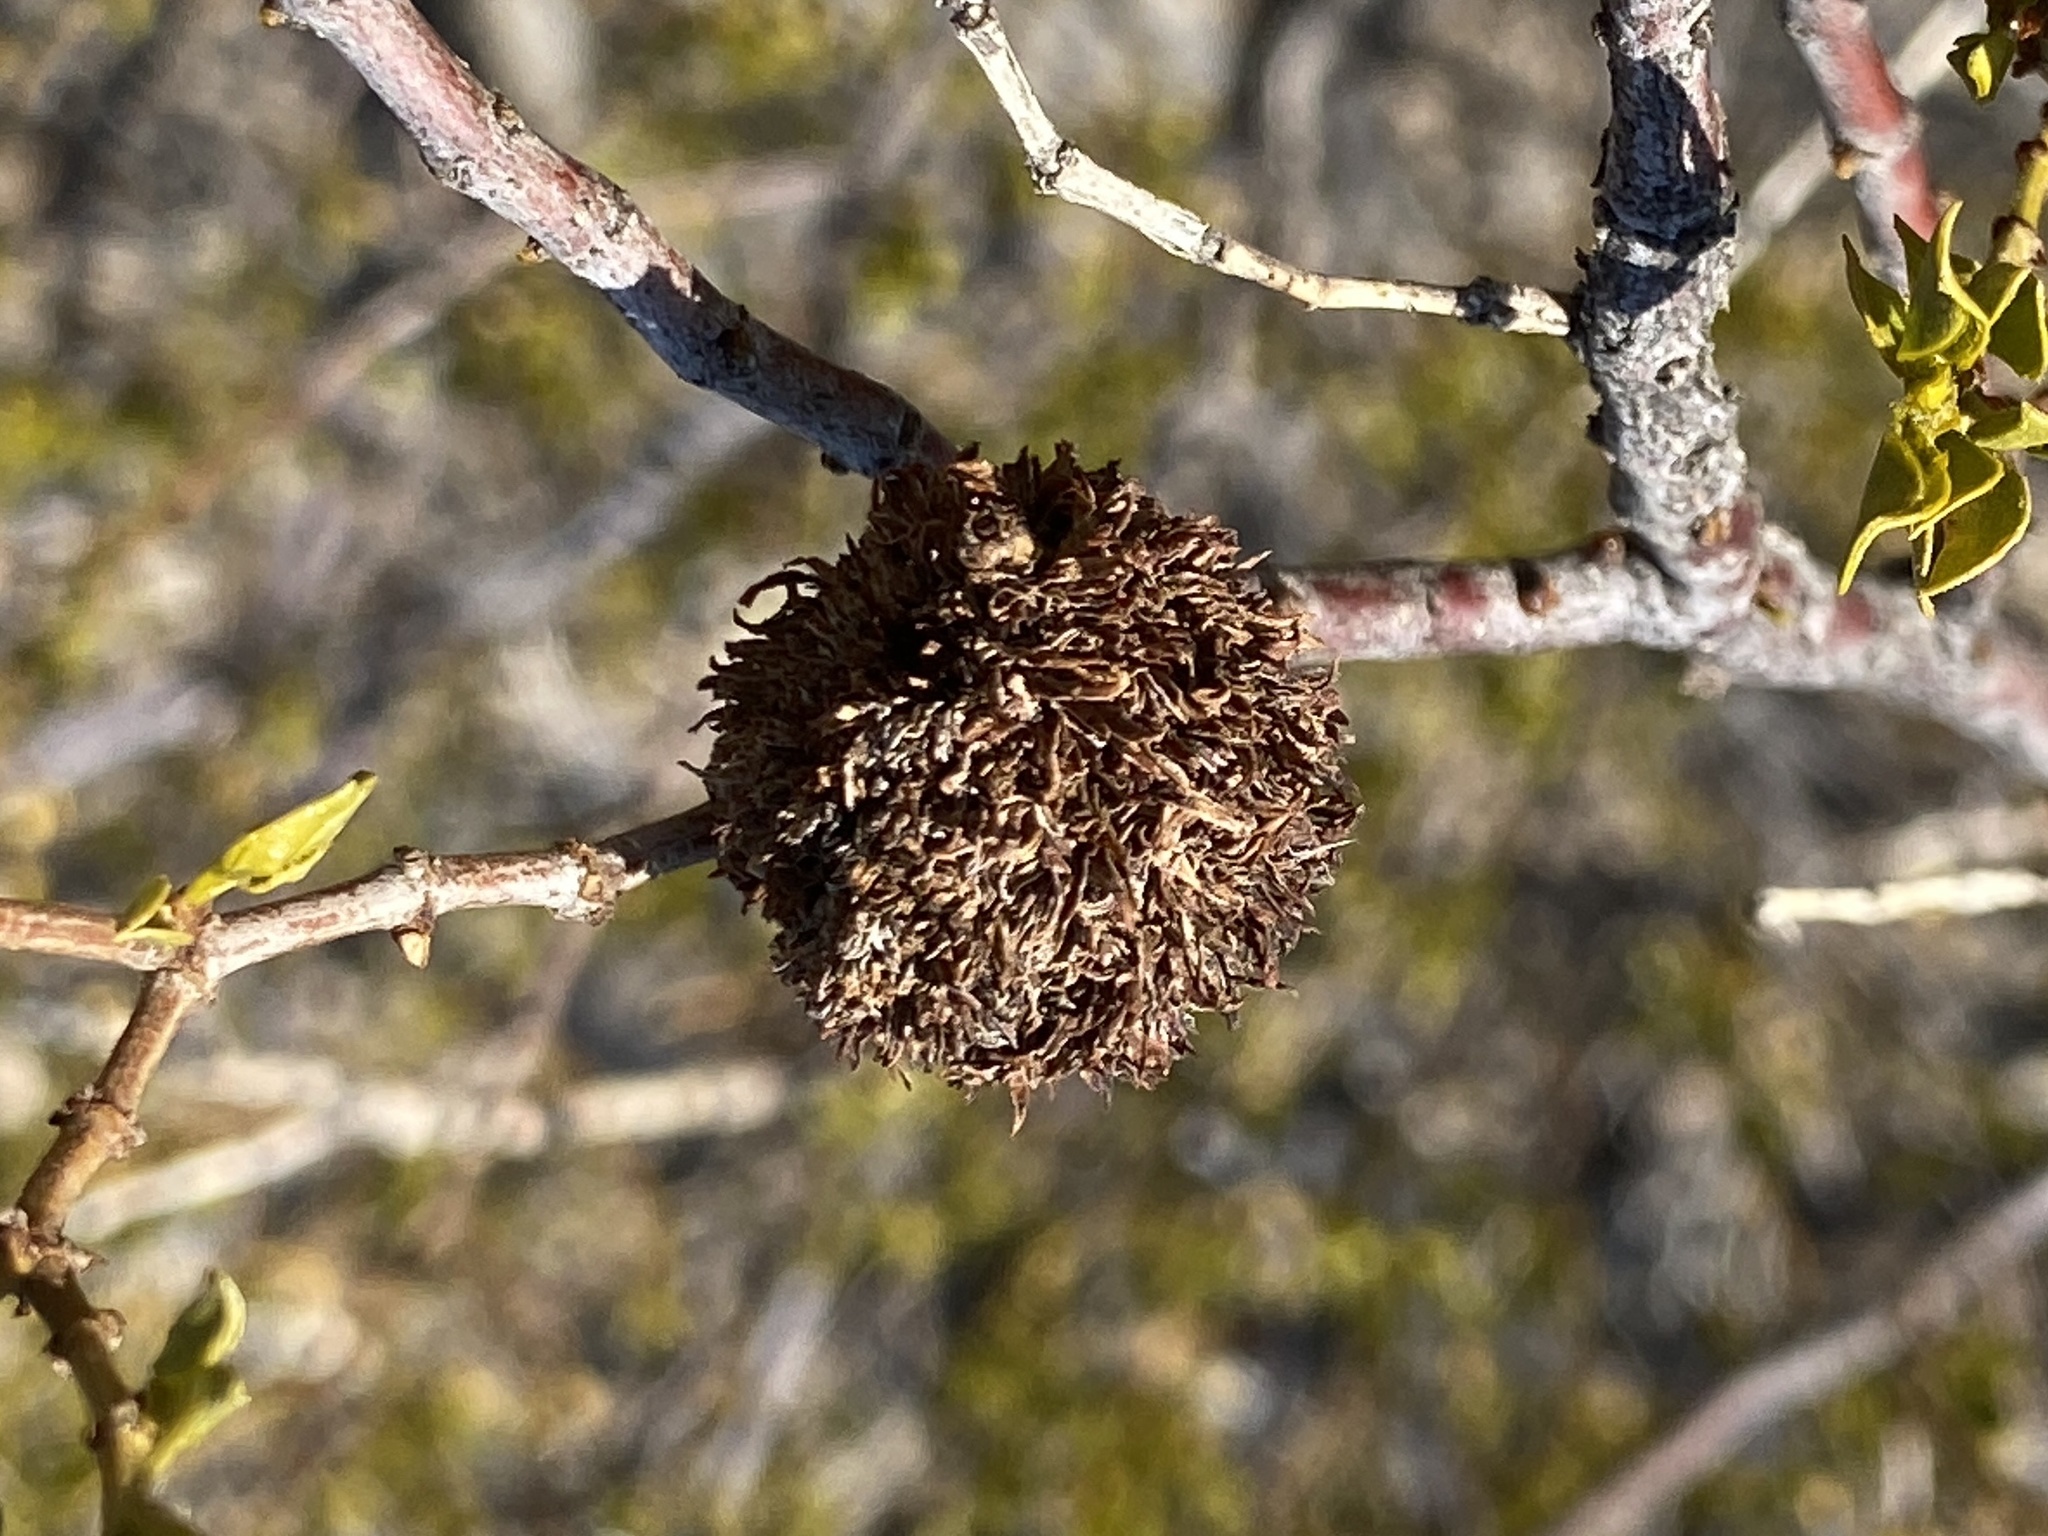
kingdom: Animalia
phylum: Arthropoda
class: Insecta
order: Diptera
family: Cecidomyiidae
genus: Asphondylia
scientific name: Asphondylia auripila
